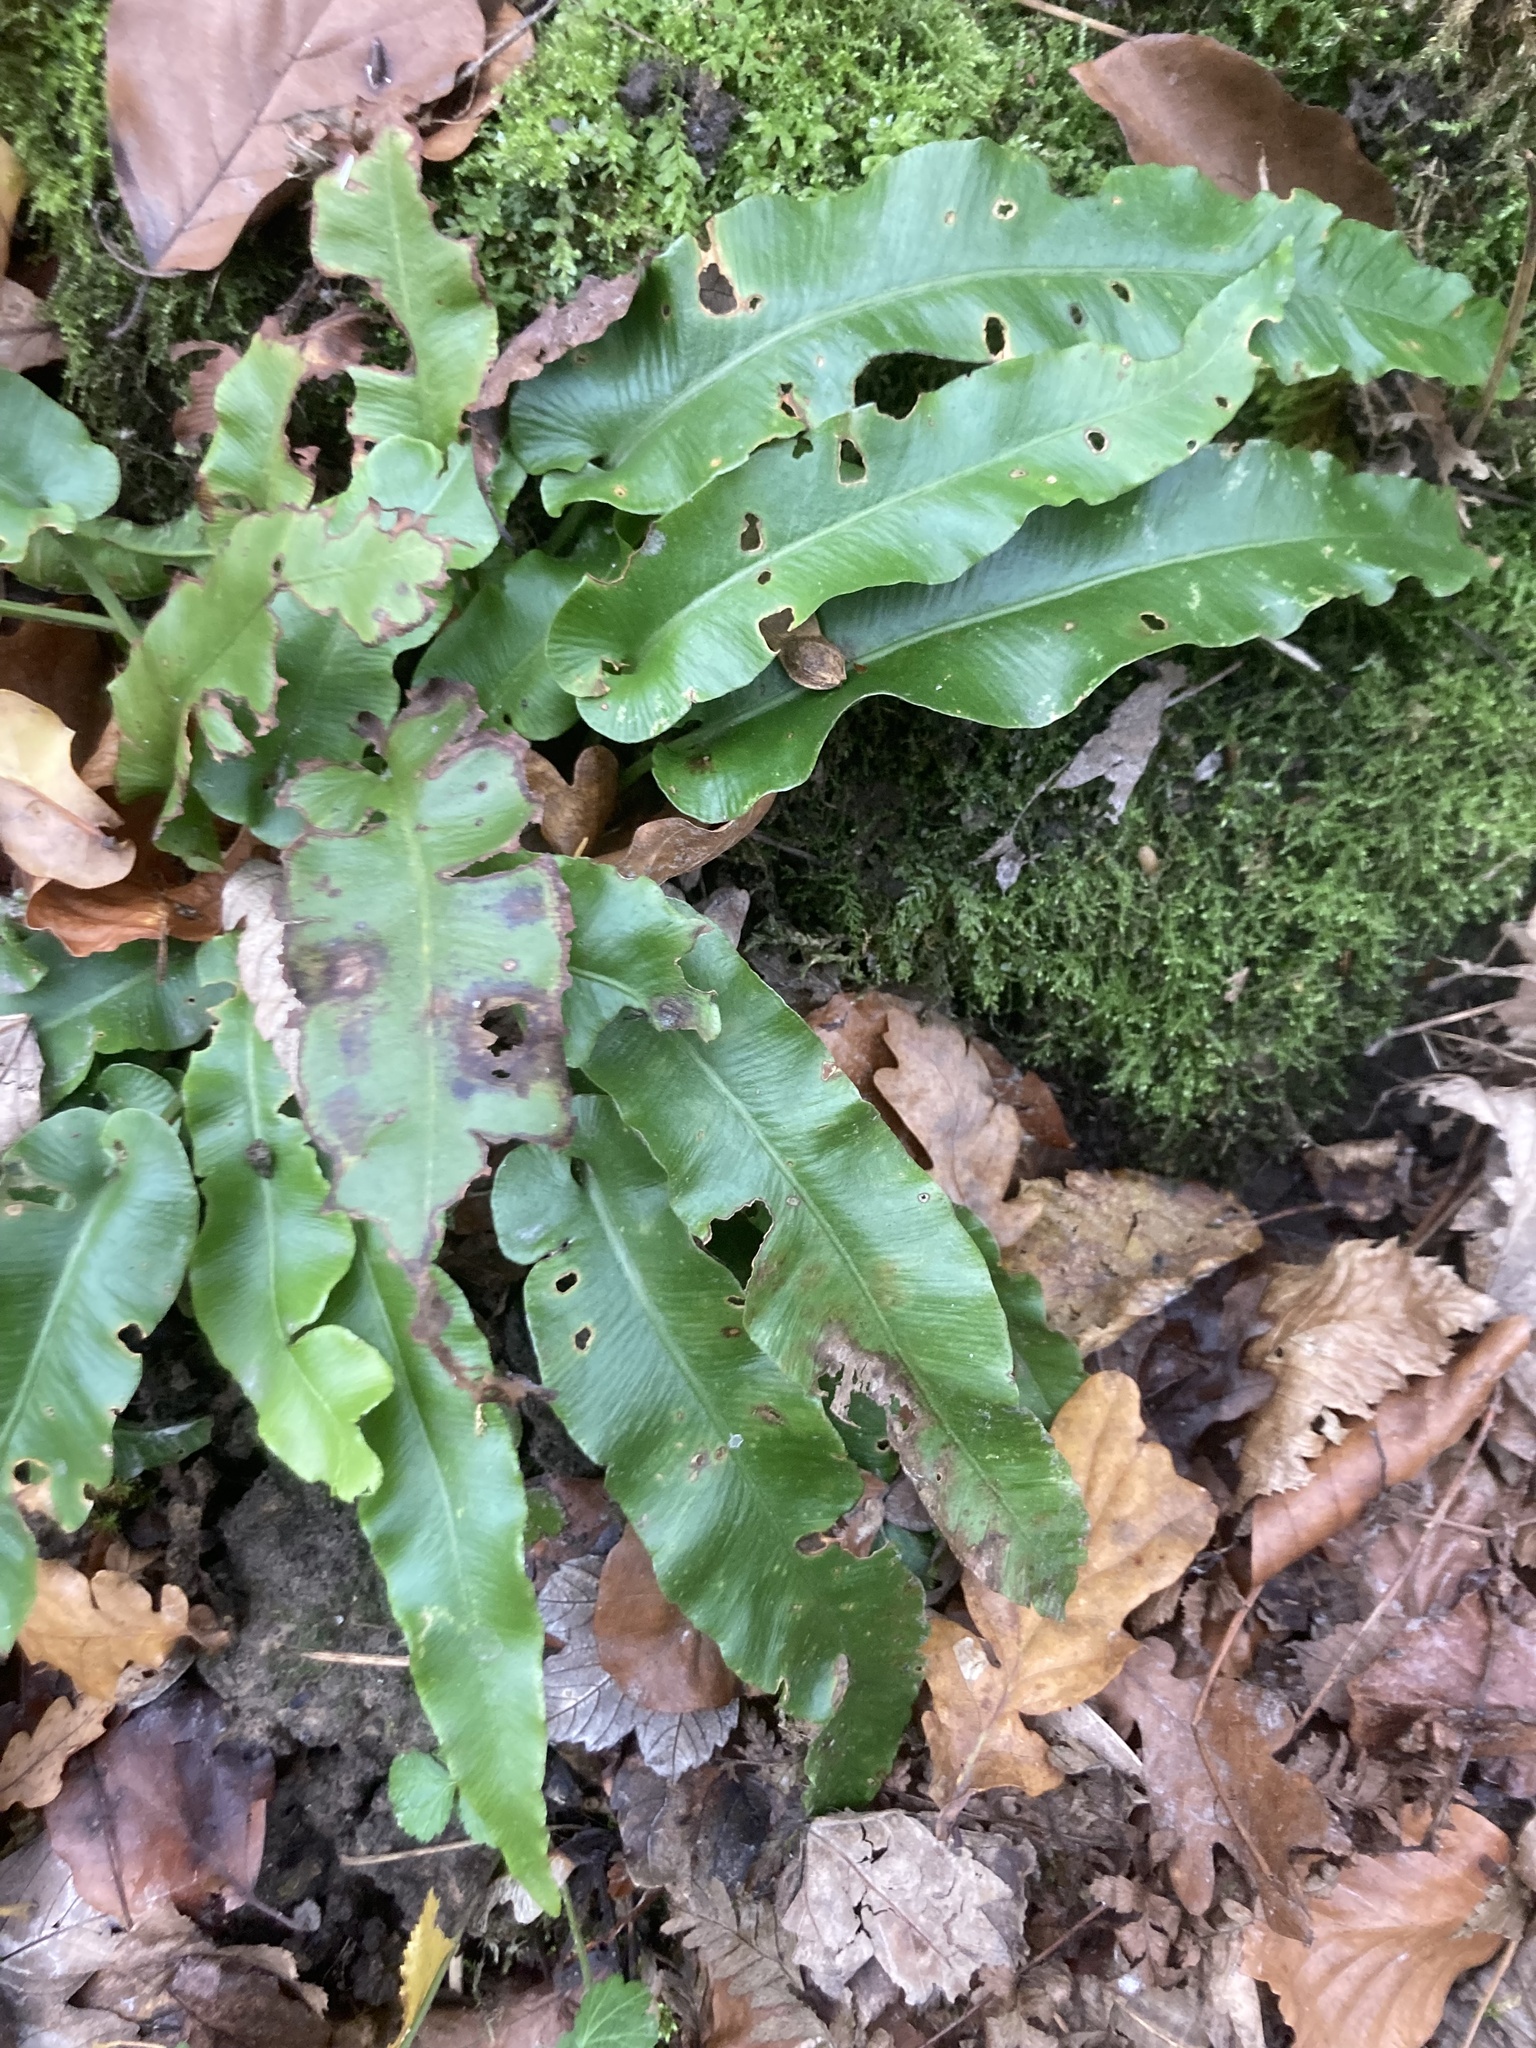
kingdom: Plantae
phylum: Tracheophyta
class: Polypodiopsida
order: Polypodiales
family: Aspleniaceae
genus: Asplenium
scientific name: Asplenium scolopendrium
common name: Hart's-tongue fern
